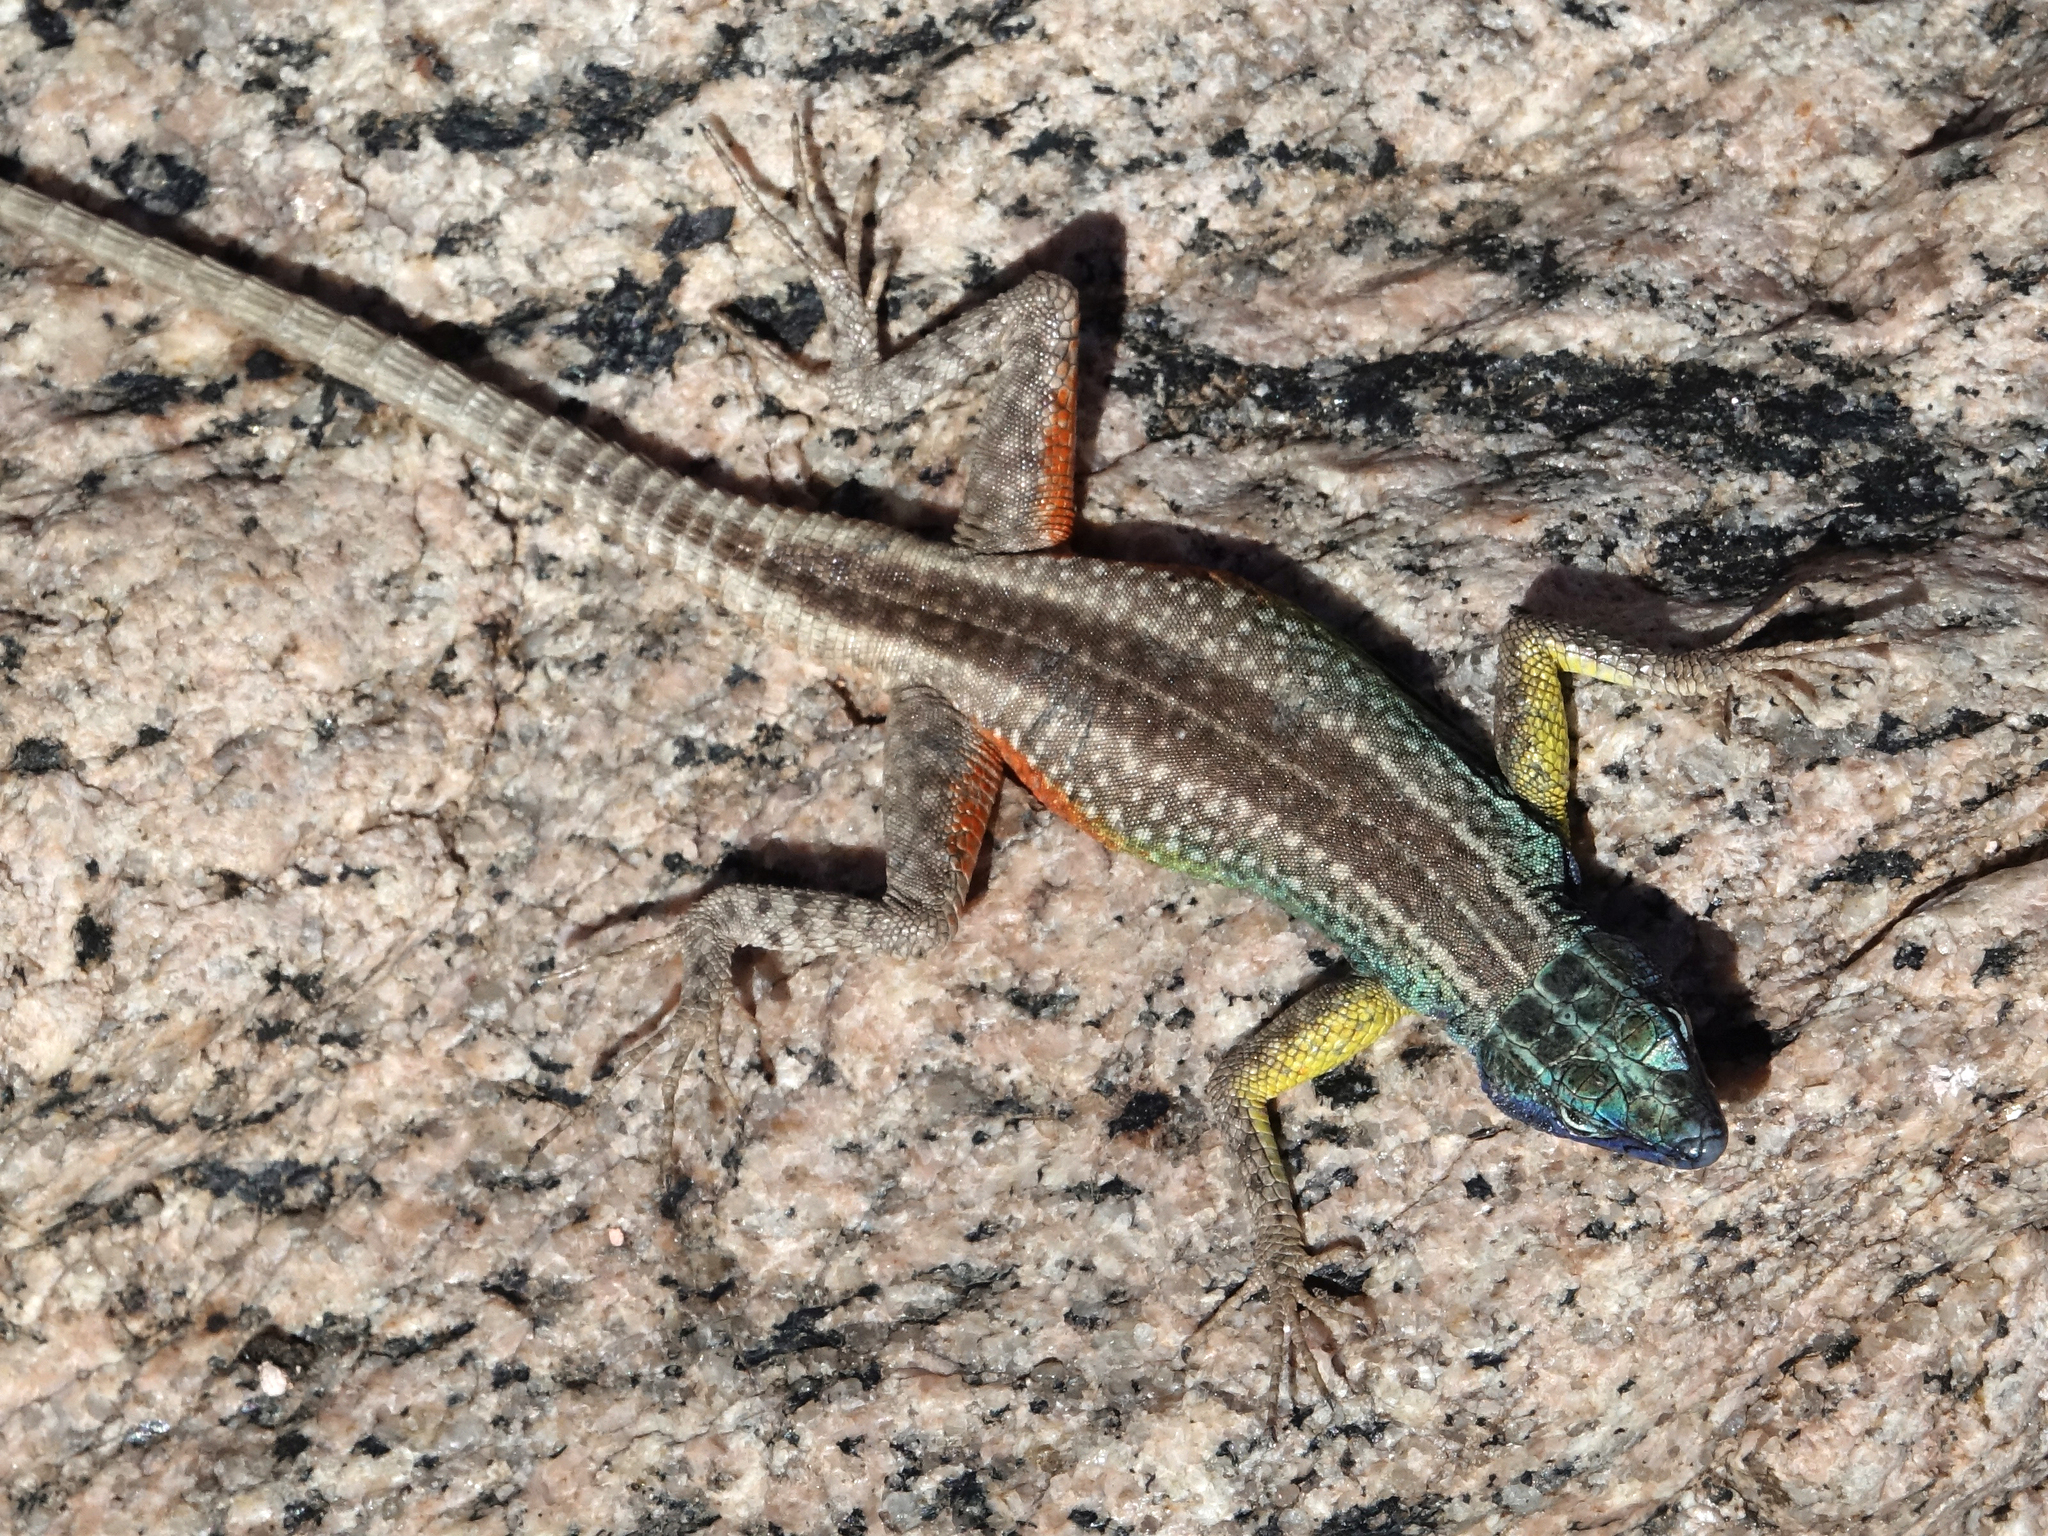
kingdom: Animalia
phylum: Chordata
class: Squamata
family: Cordylidae
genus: Platysaurus
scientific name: Platysaurus broadleyi
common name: Augrabies flat lizard
